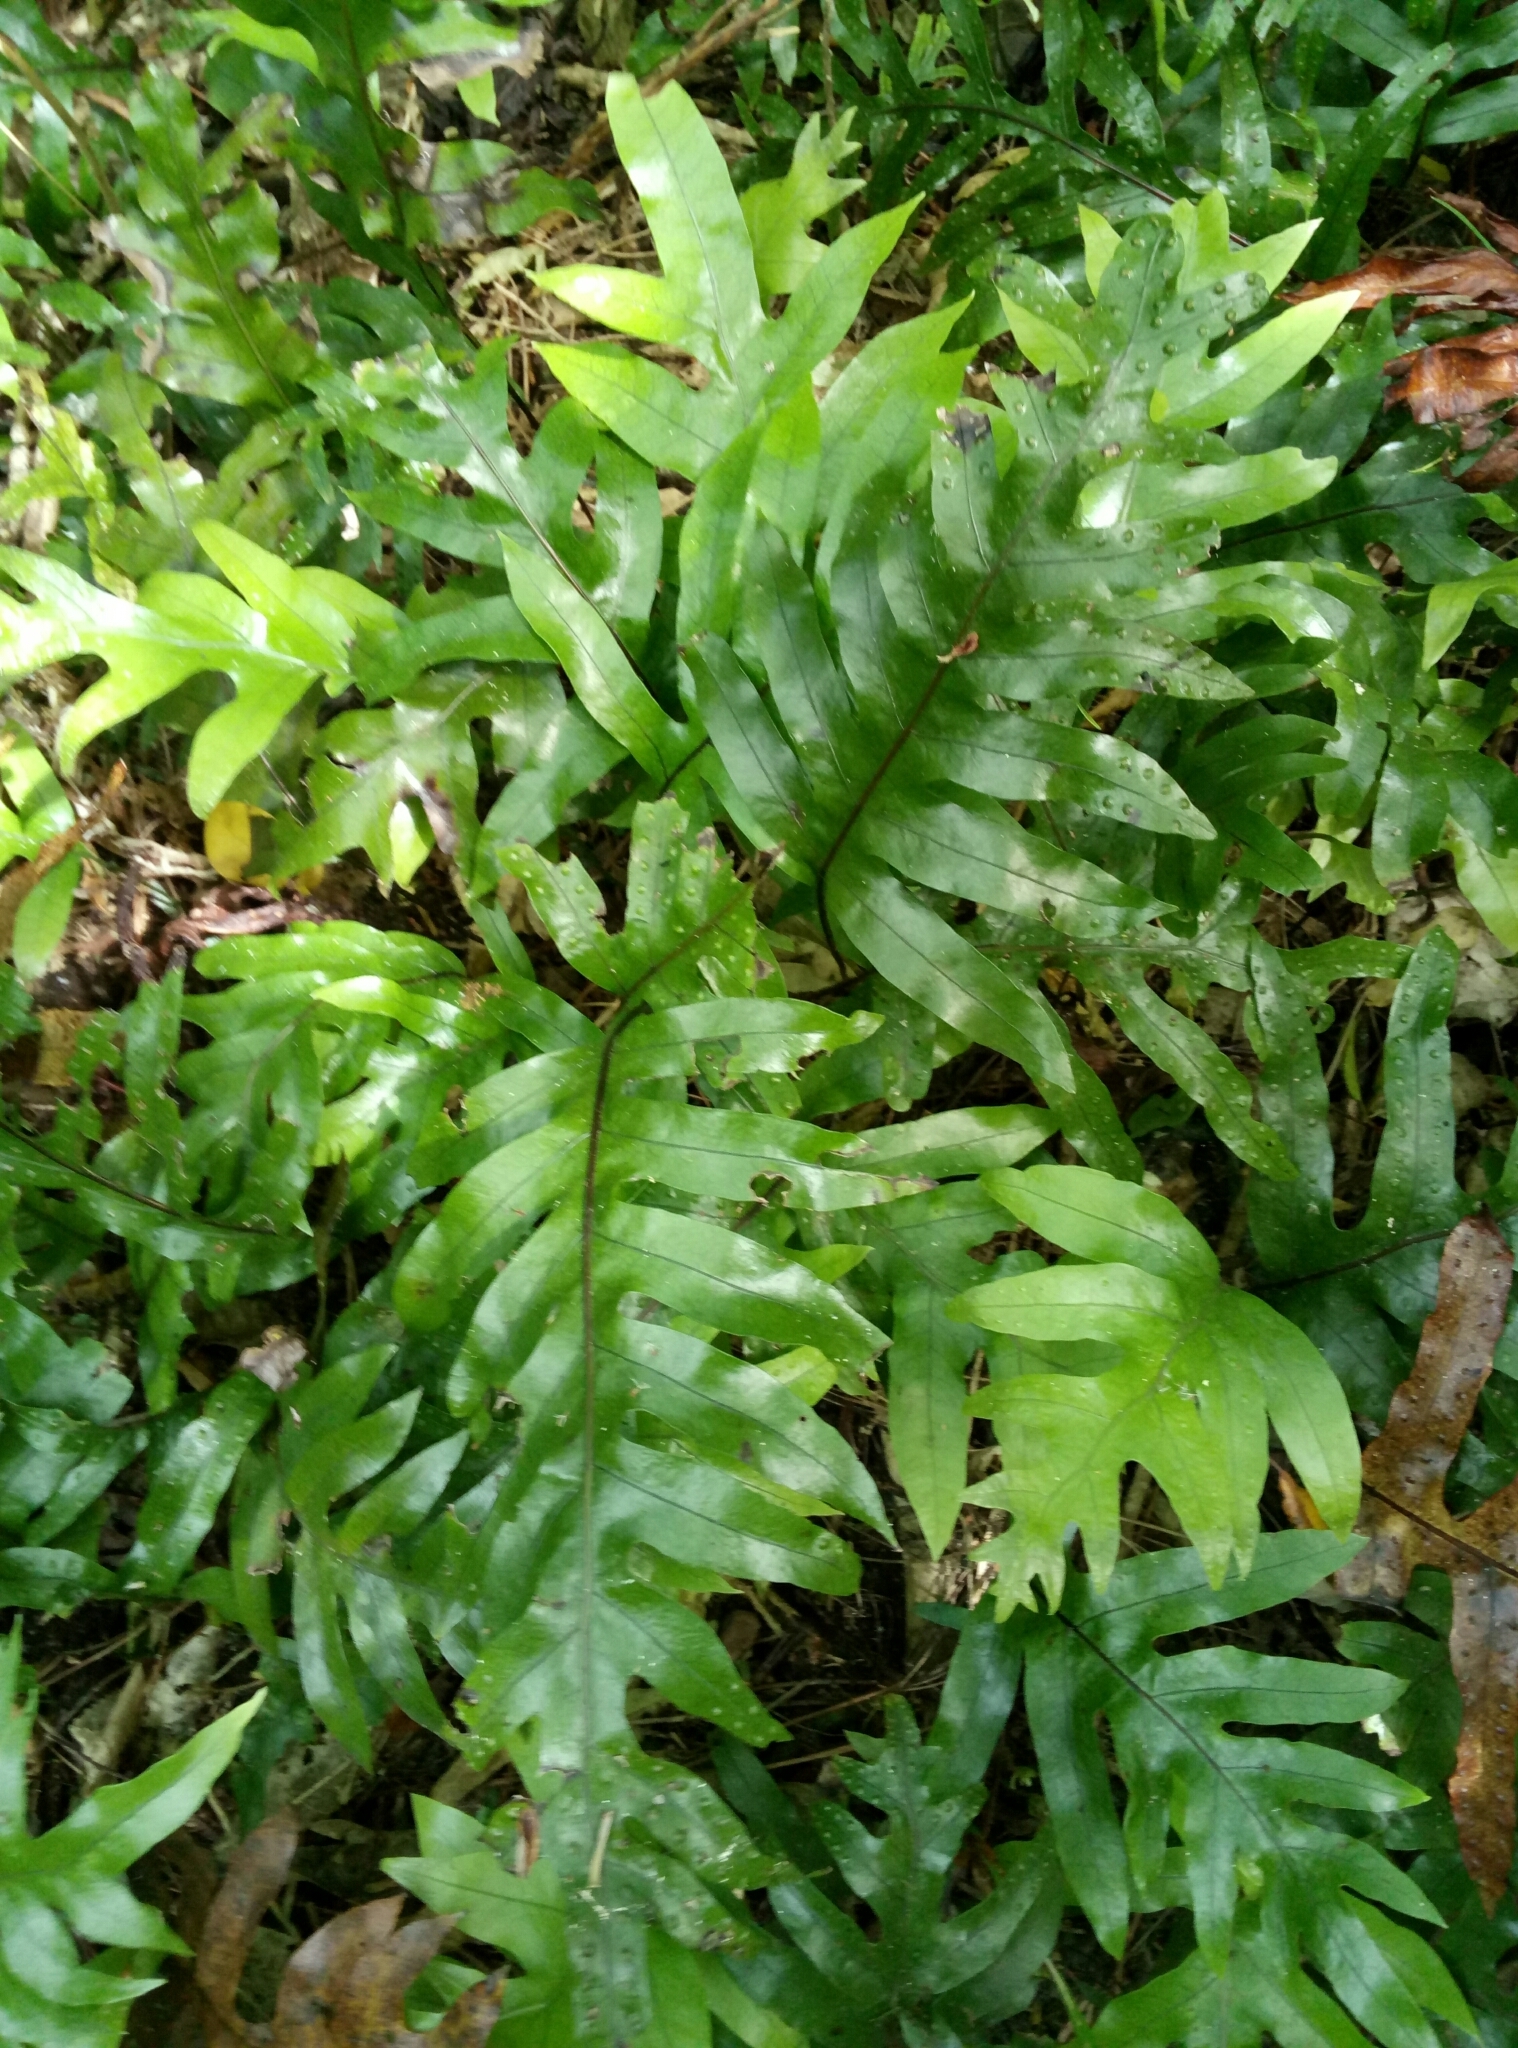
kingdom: Plantae
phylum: Tracheophyta
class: Polypodiopsida
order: Polypodiales
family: Polypodiaceae
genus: Lecanopteris
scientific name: Lecanopteris pustulata
